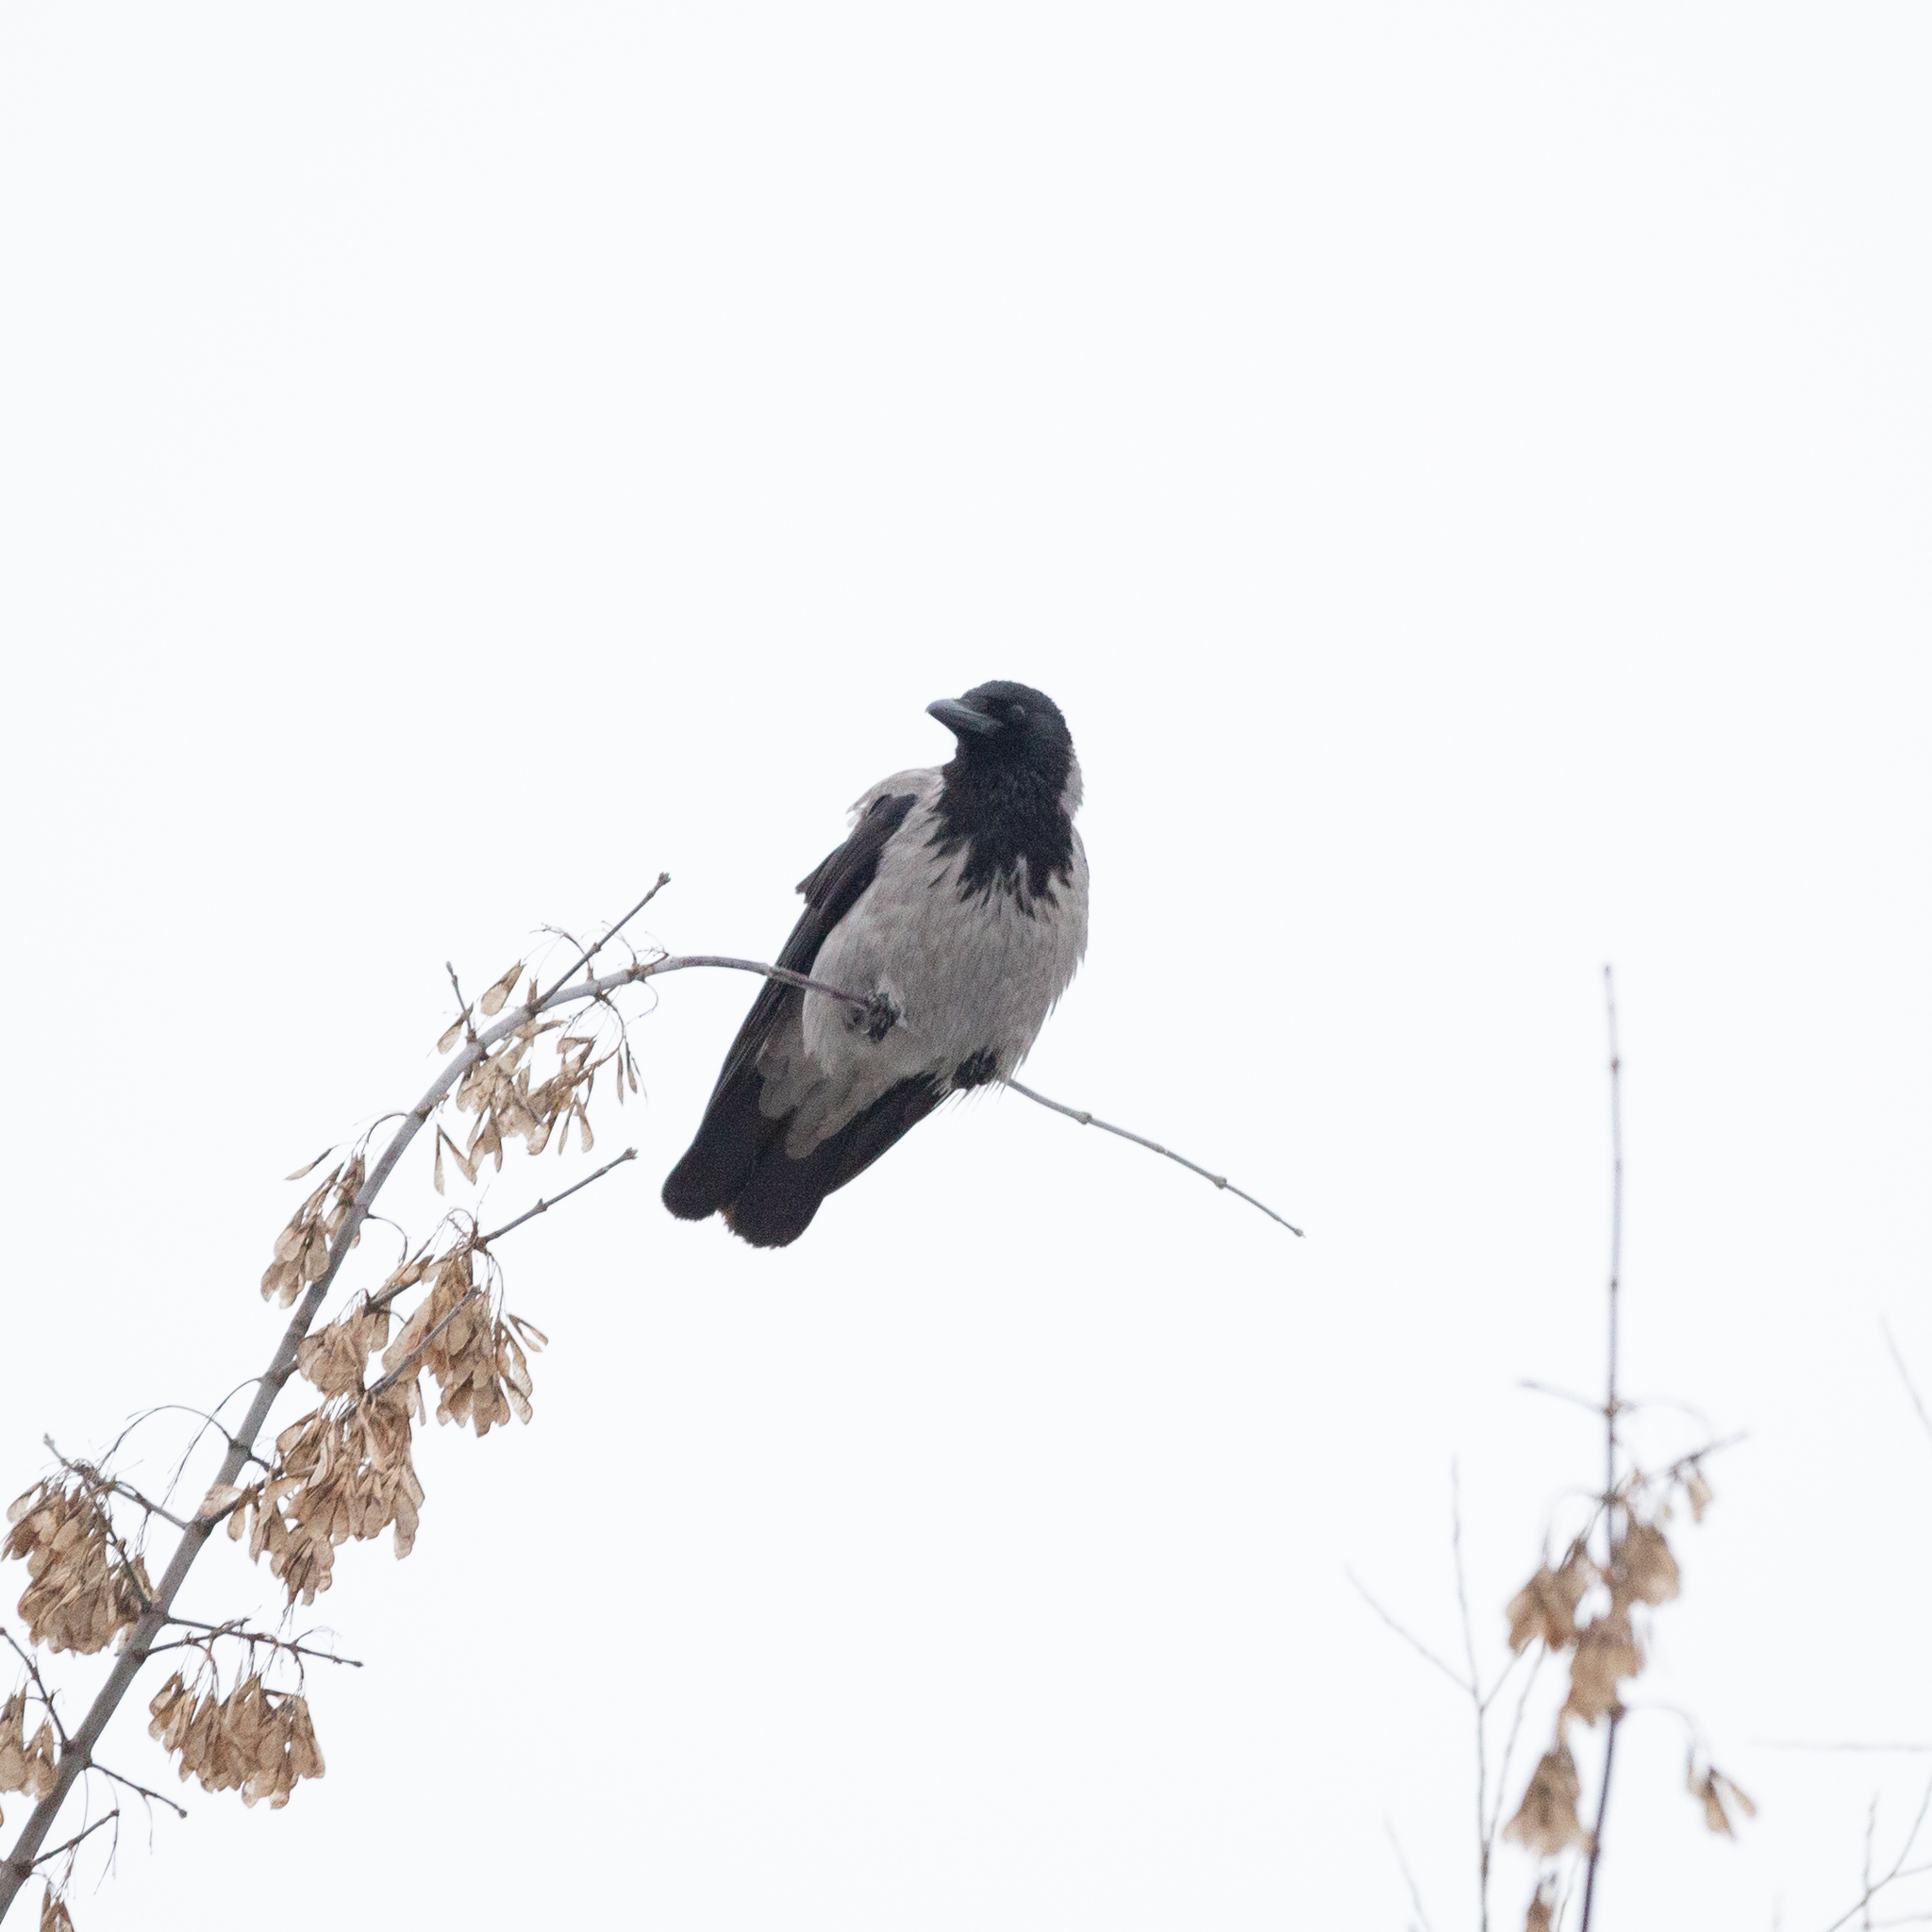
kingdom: Animalia
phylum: Chordata
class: Aves
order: Passeriformes
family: Corvidae
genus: Corvus
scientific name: Corvus cornix
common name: Hooded crow
